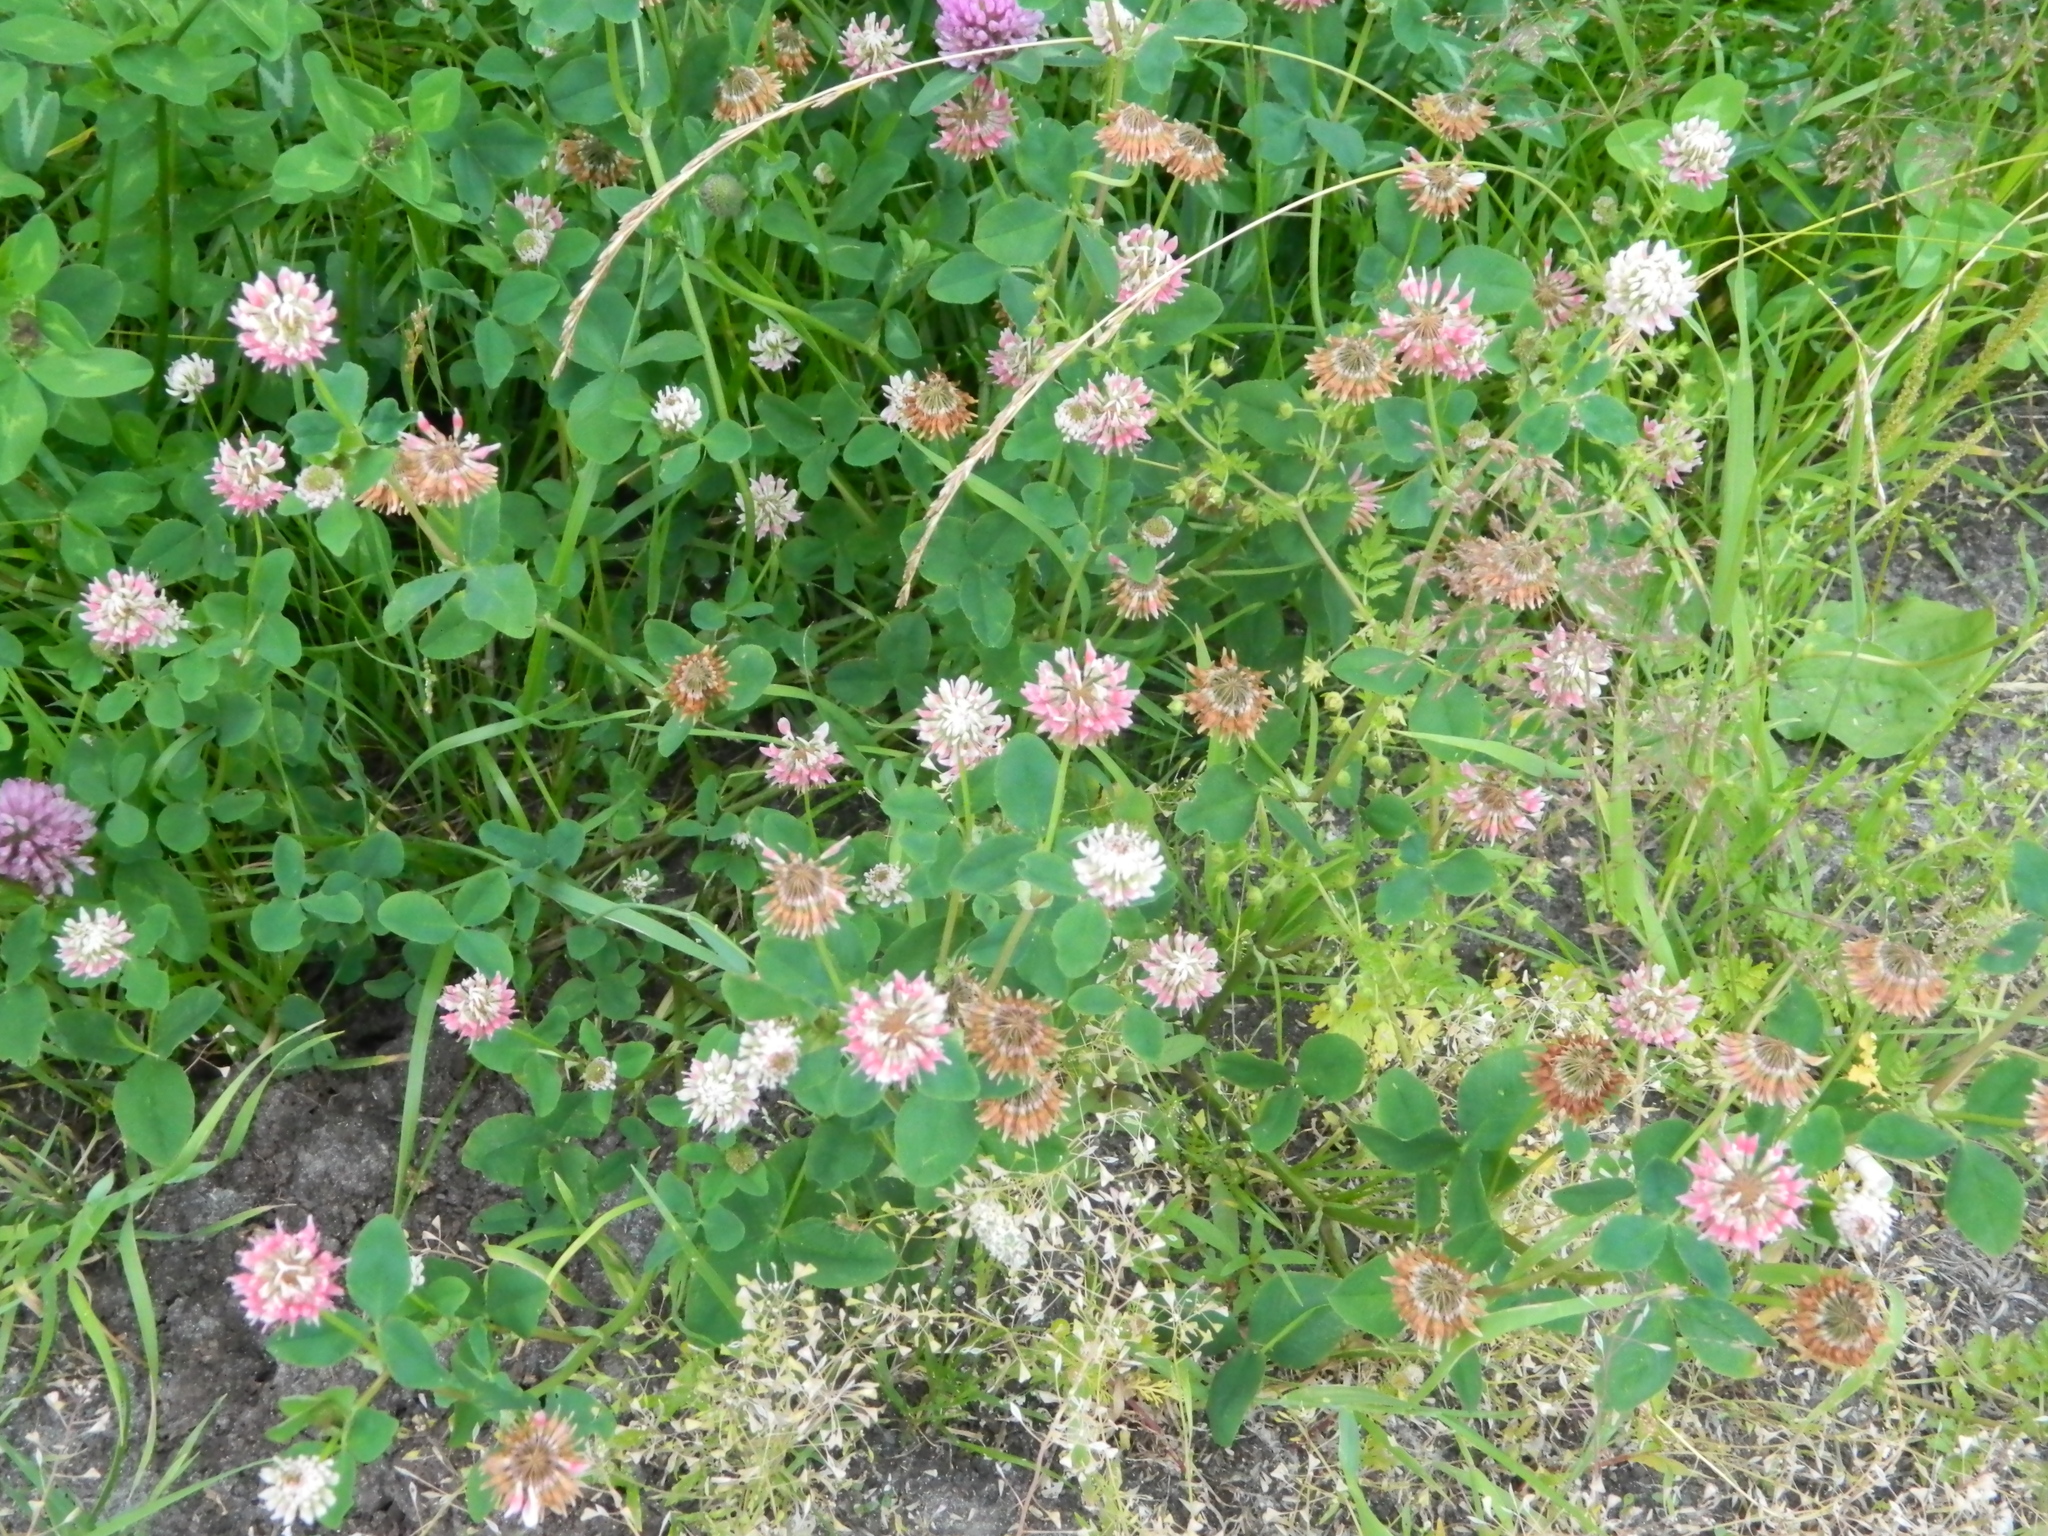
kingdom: Plantae
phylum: Tracheophyta
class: Magnoliopsida
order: Fabales
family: Fabaceae
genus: Trifolium
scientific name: Trifolium hybridum
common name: Alsike clover
